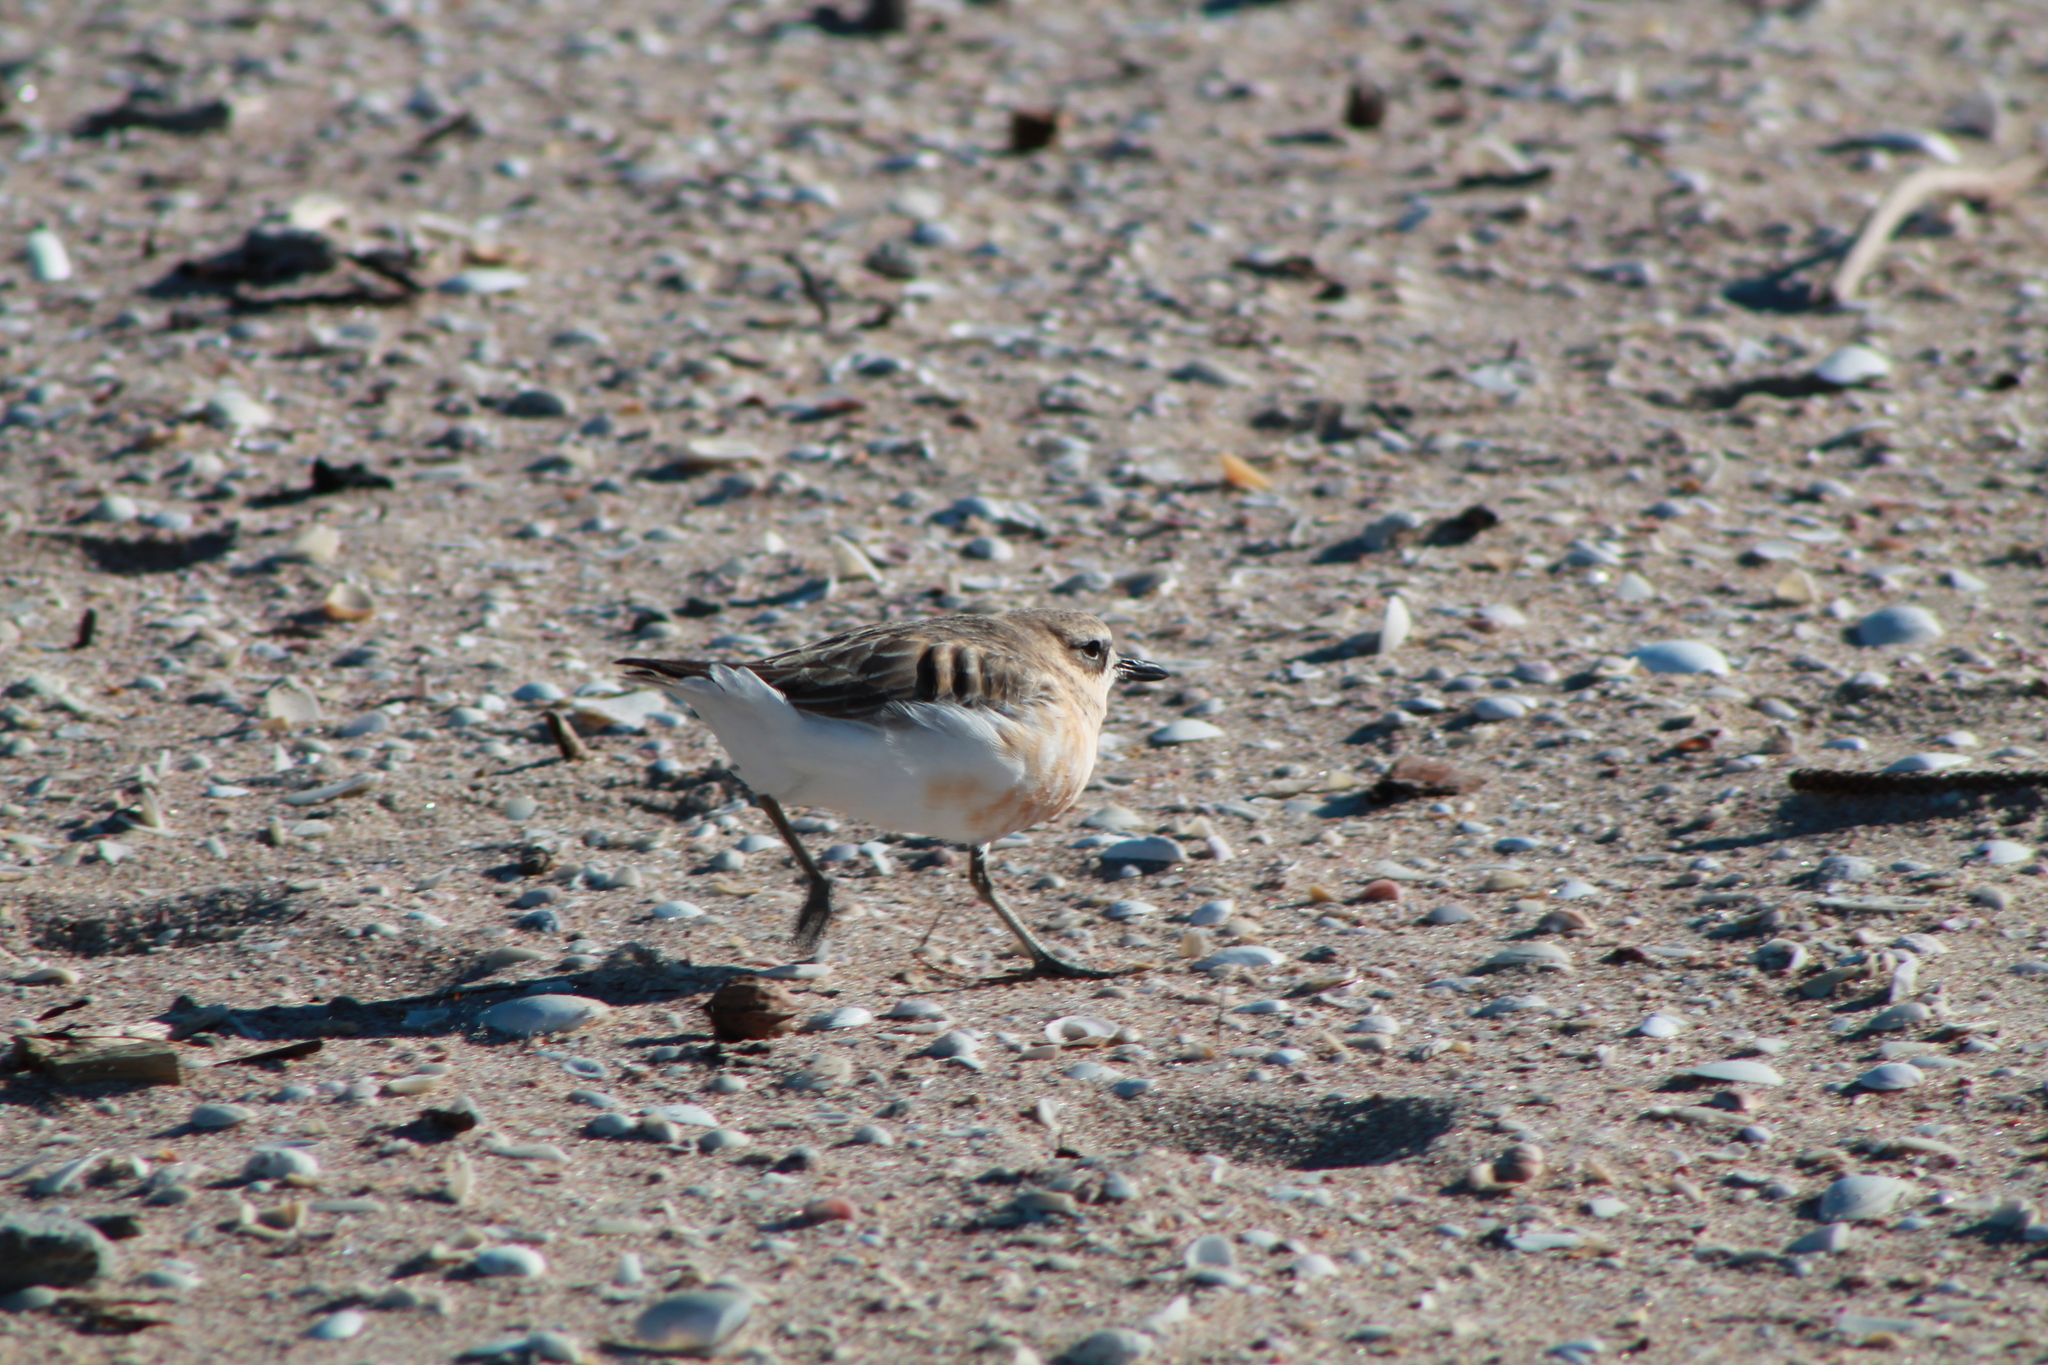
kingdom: Animalia
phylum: Chordata
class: Aves
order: Charadriiformes
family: Charadriidae
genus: Anarhynchus
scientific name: Anarhynchus
